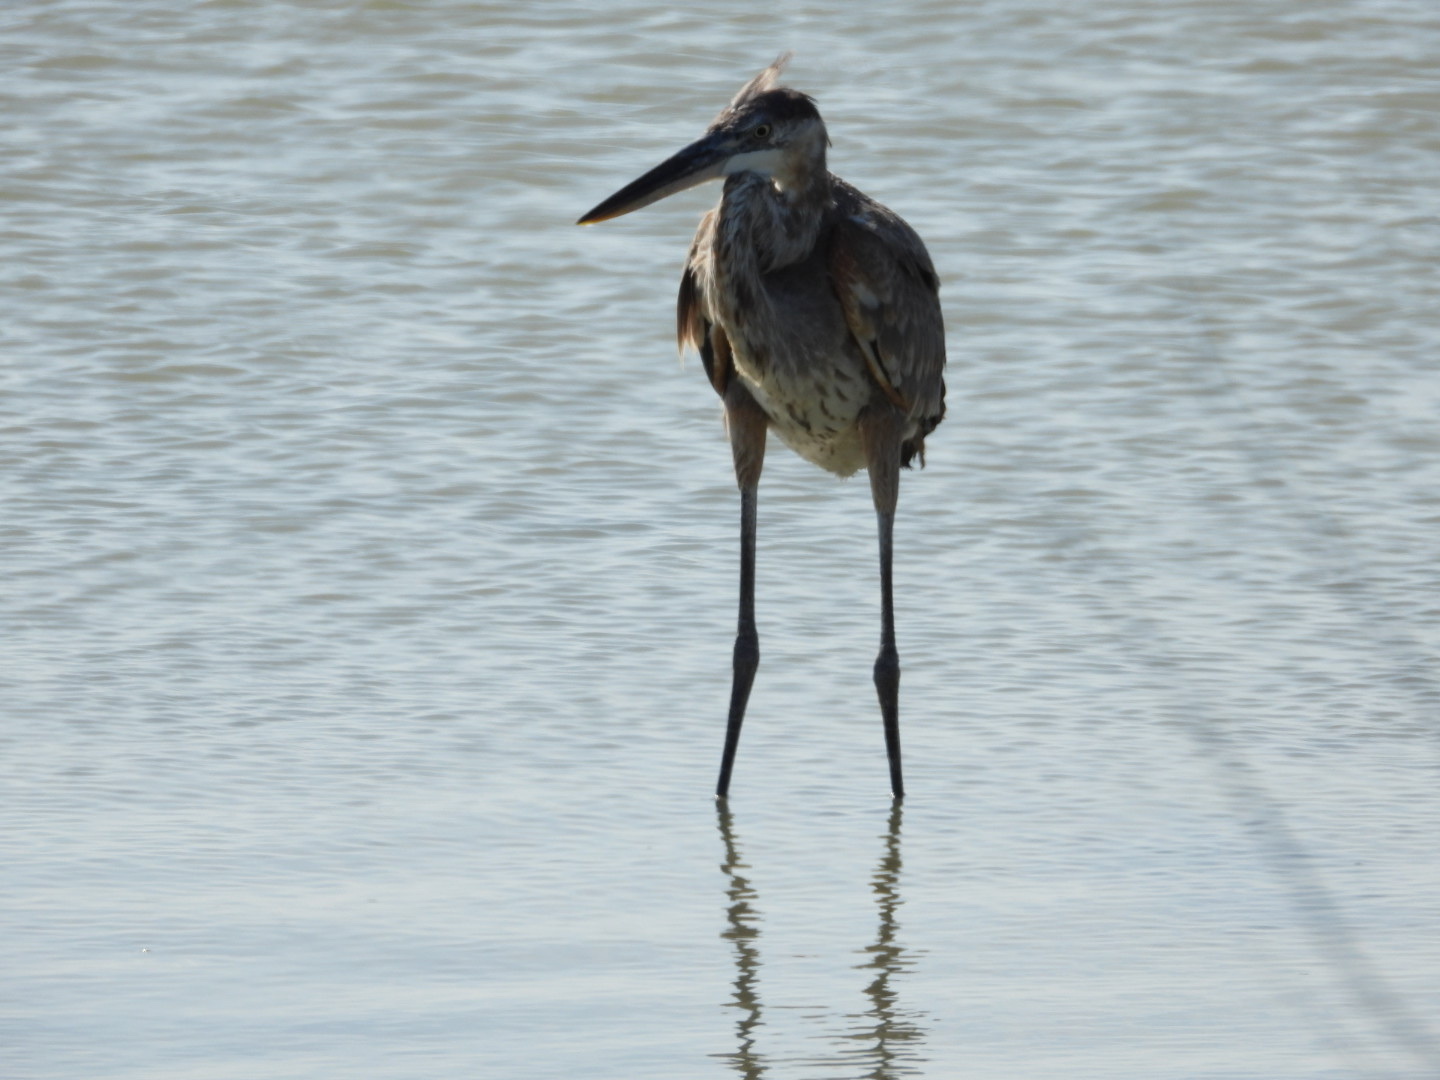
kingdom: Animalia
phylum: Chordata
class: Aves
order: Pelecaniformes
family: Ardeidae
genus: Ardea
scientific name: Ardea herodias
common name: Great blue heron
